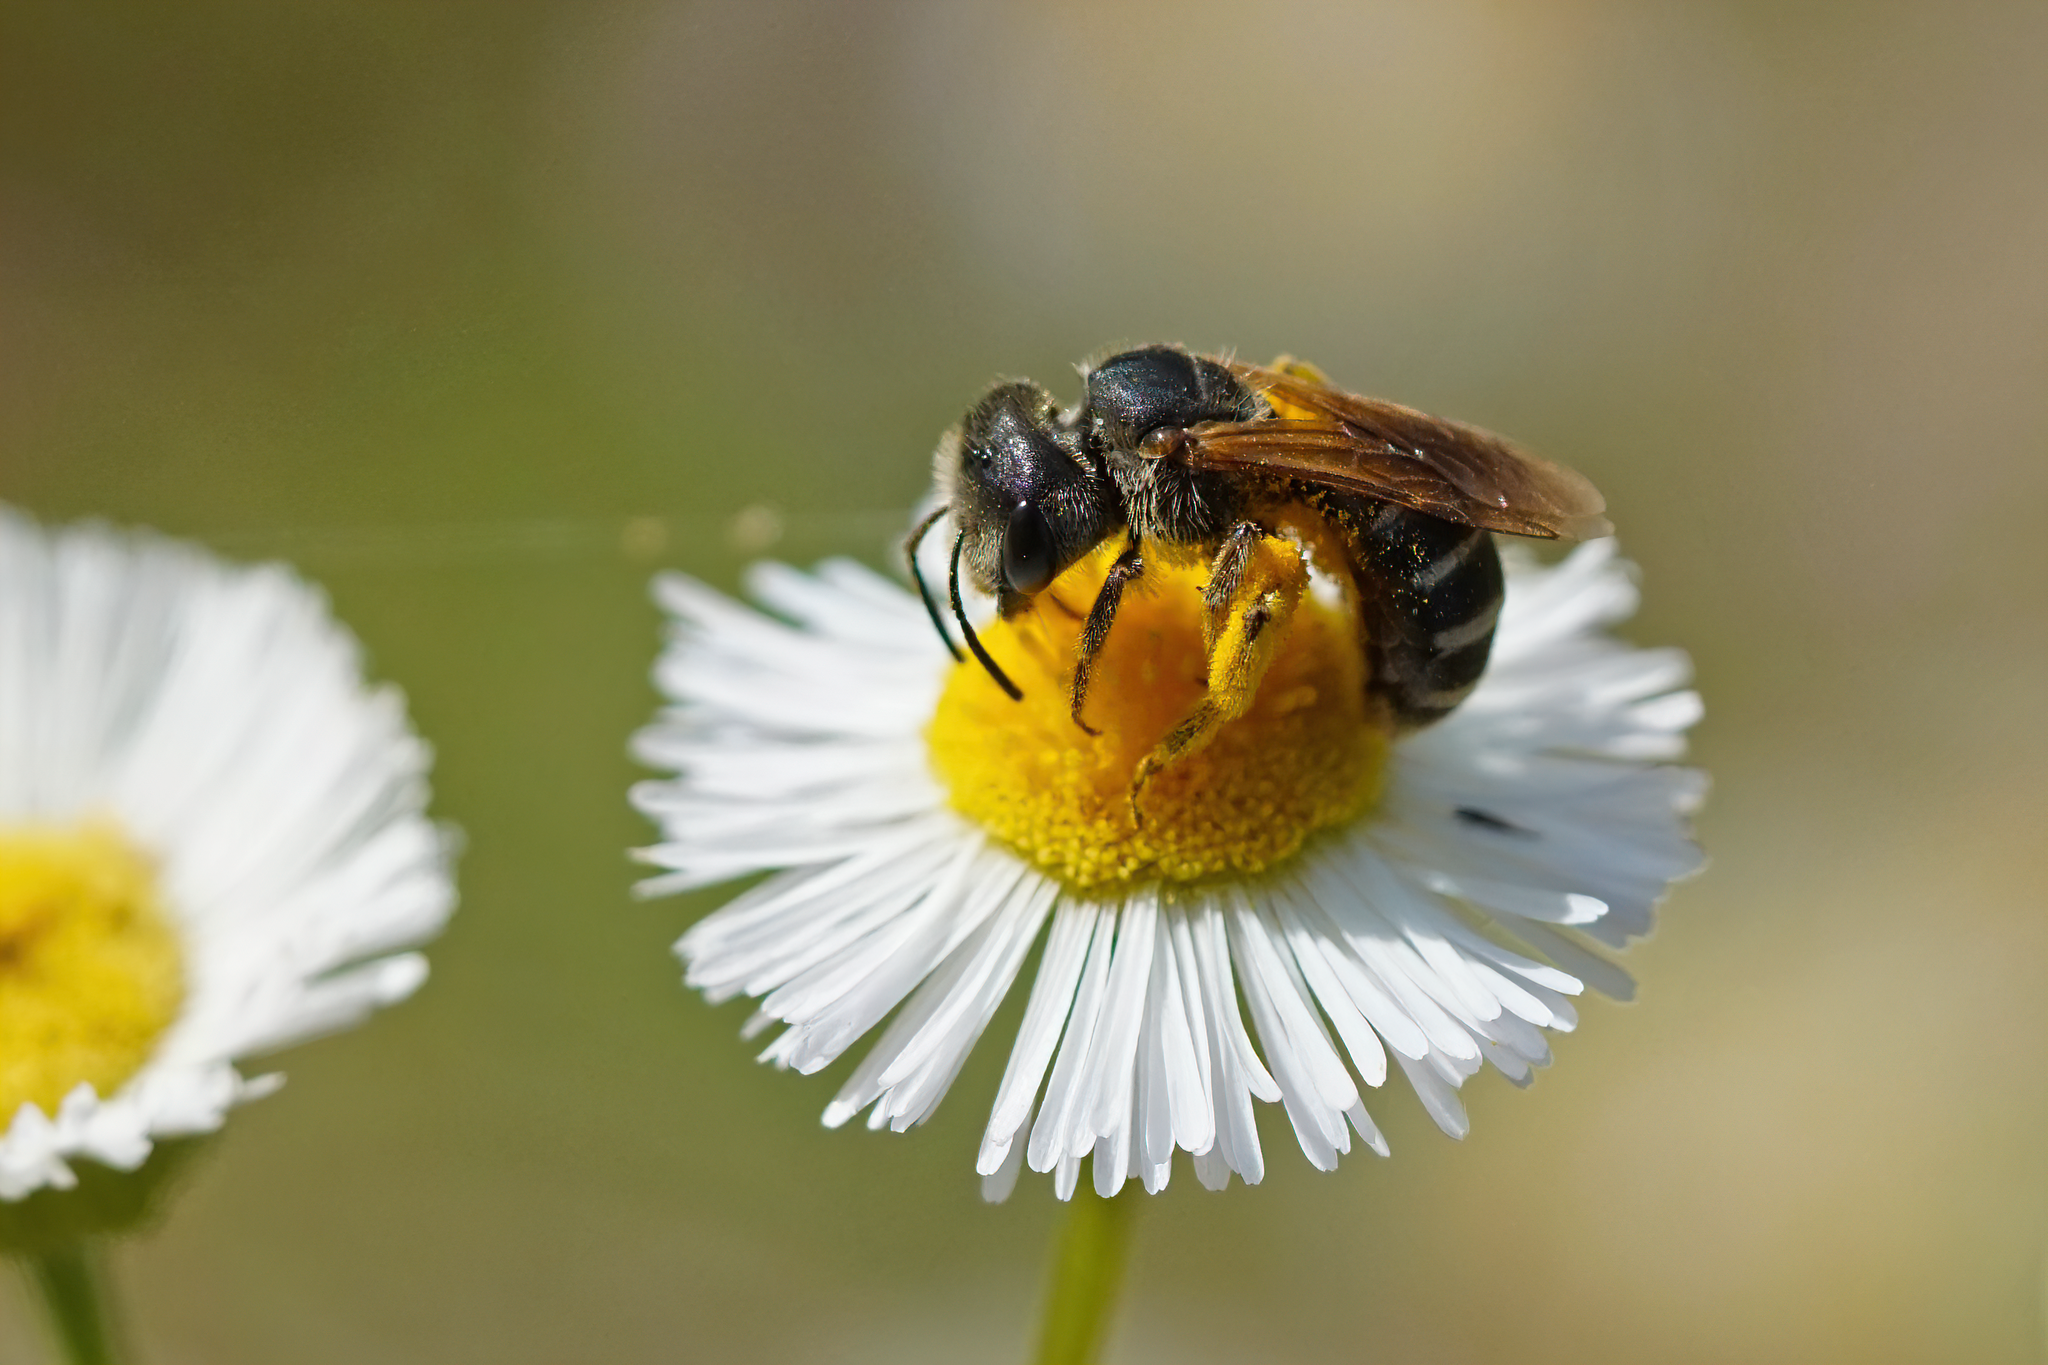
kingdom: Animalia
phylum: Arthropoda
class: Insecta
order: Hymenoptera
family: Halictidae
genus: Halictus
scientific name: Halictus poeyi
